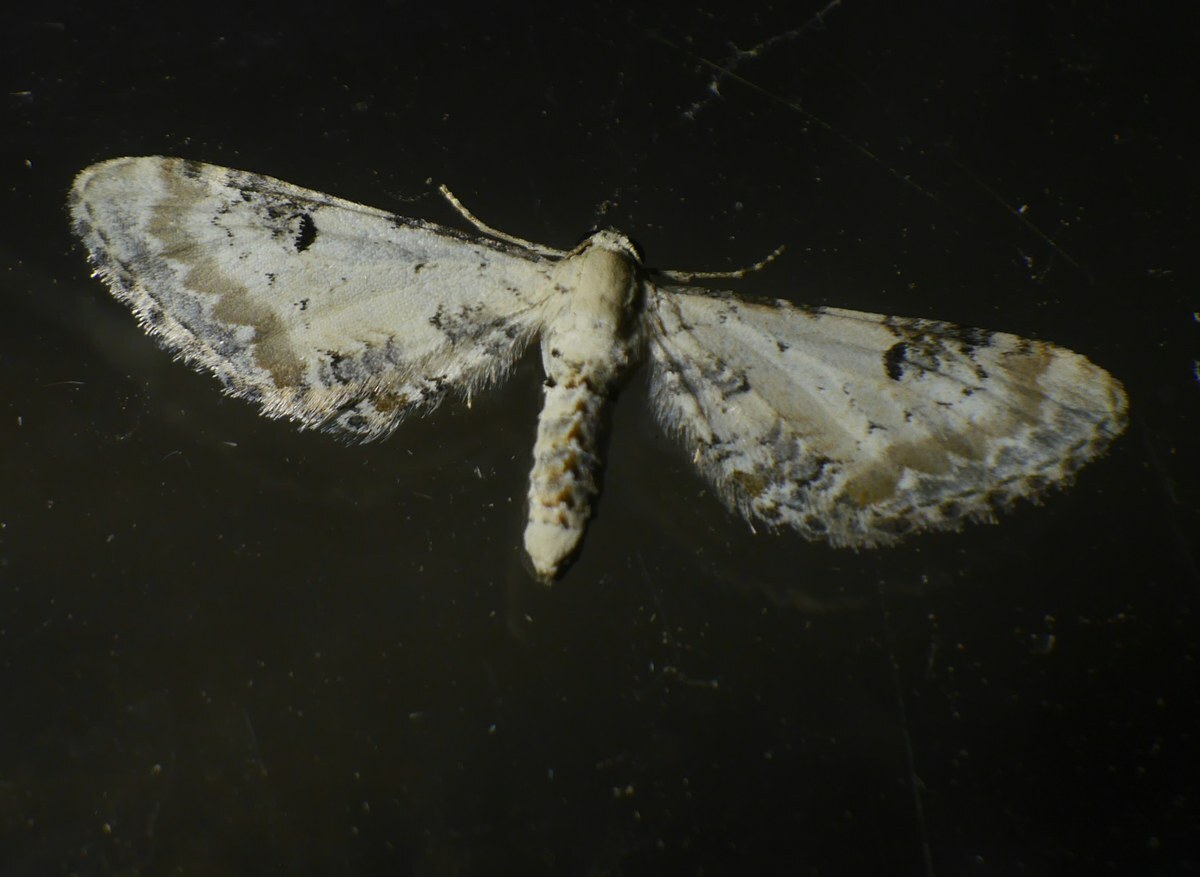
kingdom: Animalia
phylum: Arthropoda
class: Insecta
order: Lepidoptera
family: Geometridae
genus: Eupithecia
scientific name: Eupithecia centaureata
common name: Lime-speck pug
